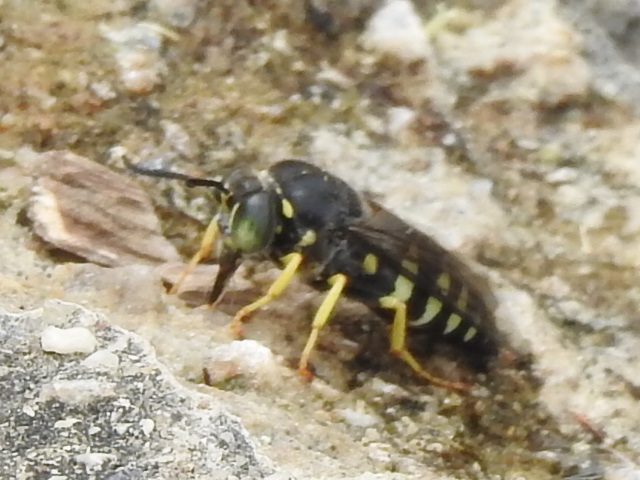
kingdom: Animalia
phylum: Arthropoda
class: Insecta
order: Hymenoptera
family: Crabronidae
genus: Bicyrtes
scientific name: Bicyrtes quadrifasciatus
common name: Four-banded stink bug hunter wasp
